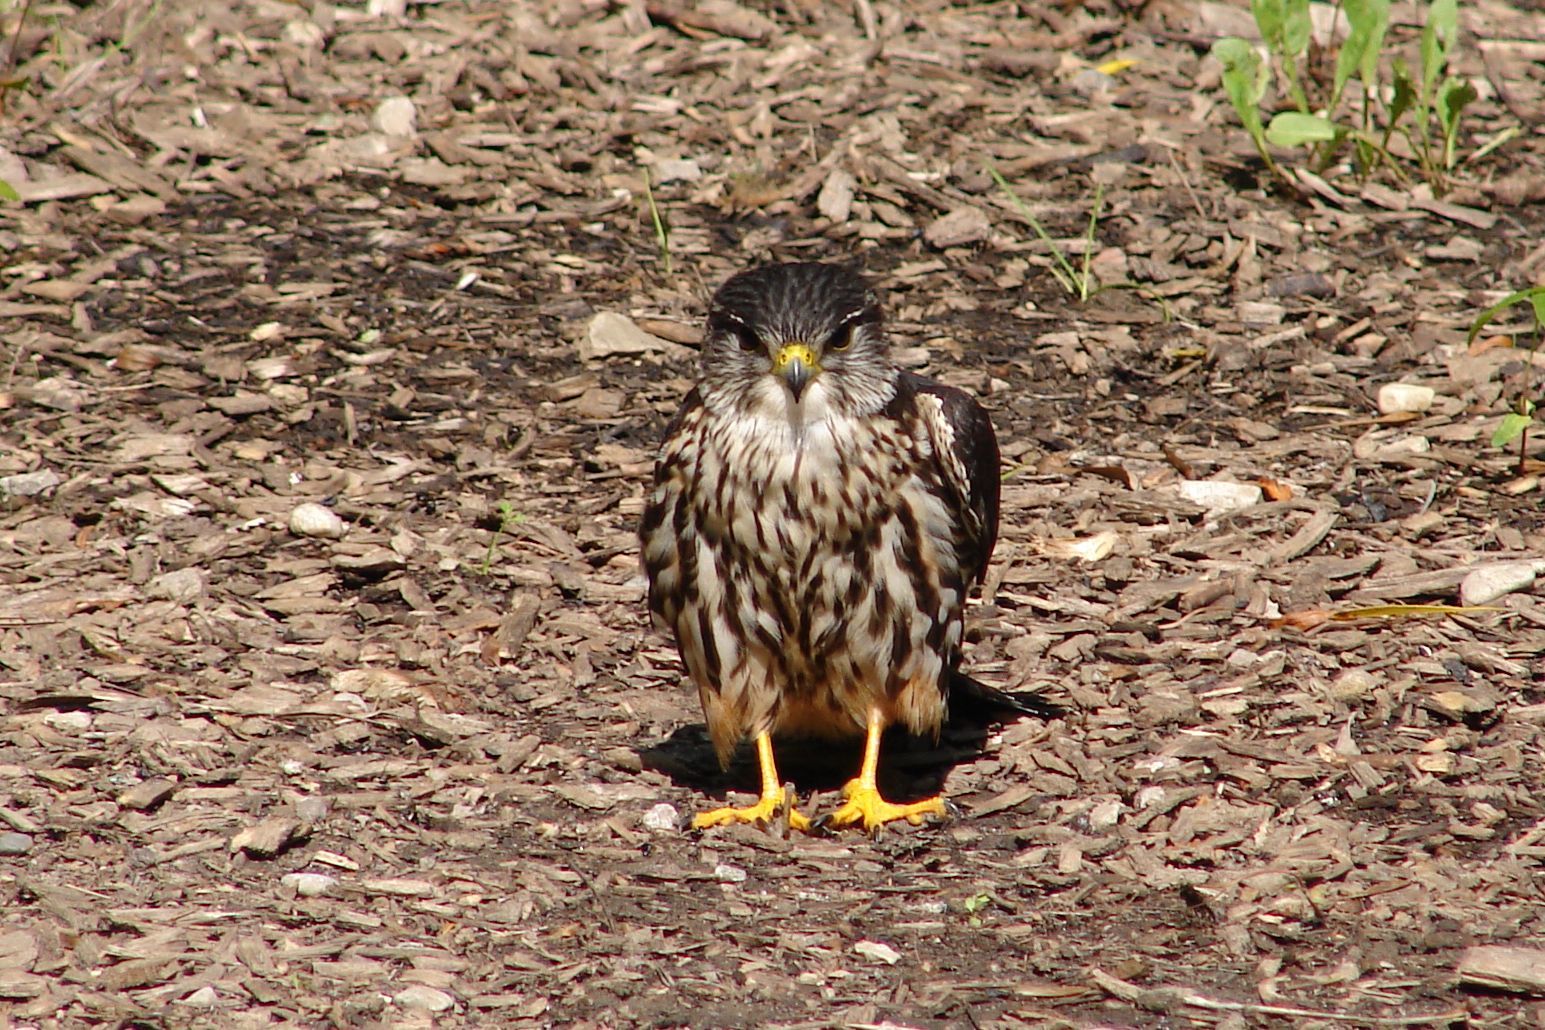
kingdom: Animalia
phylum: Chordata
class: Aves
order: Falconiformes
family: Falconidae
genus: Falco
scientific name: Falco columbarius
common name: Merlin
